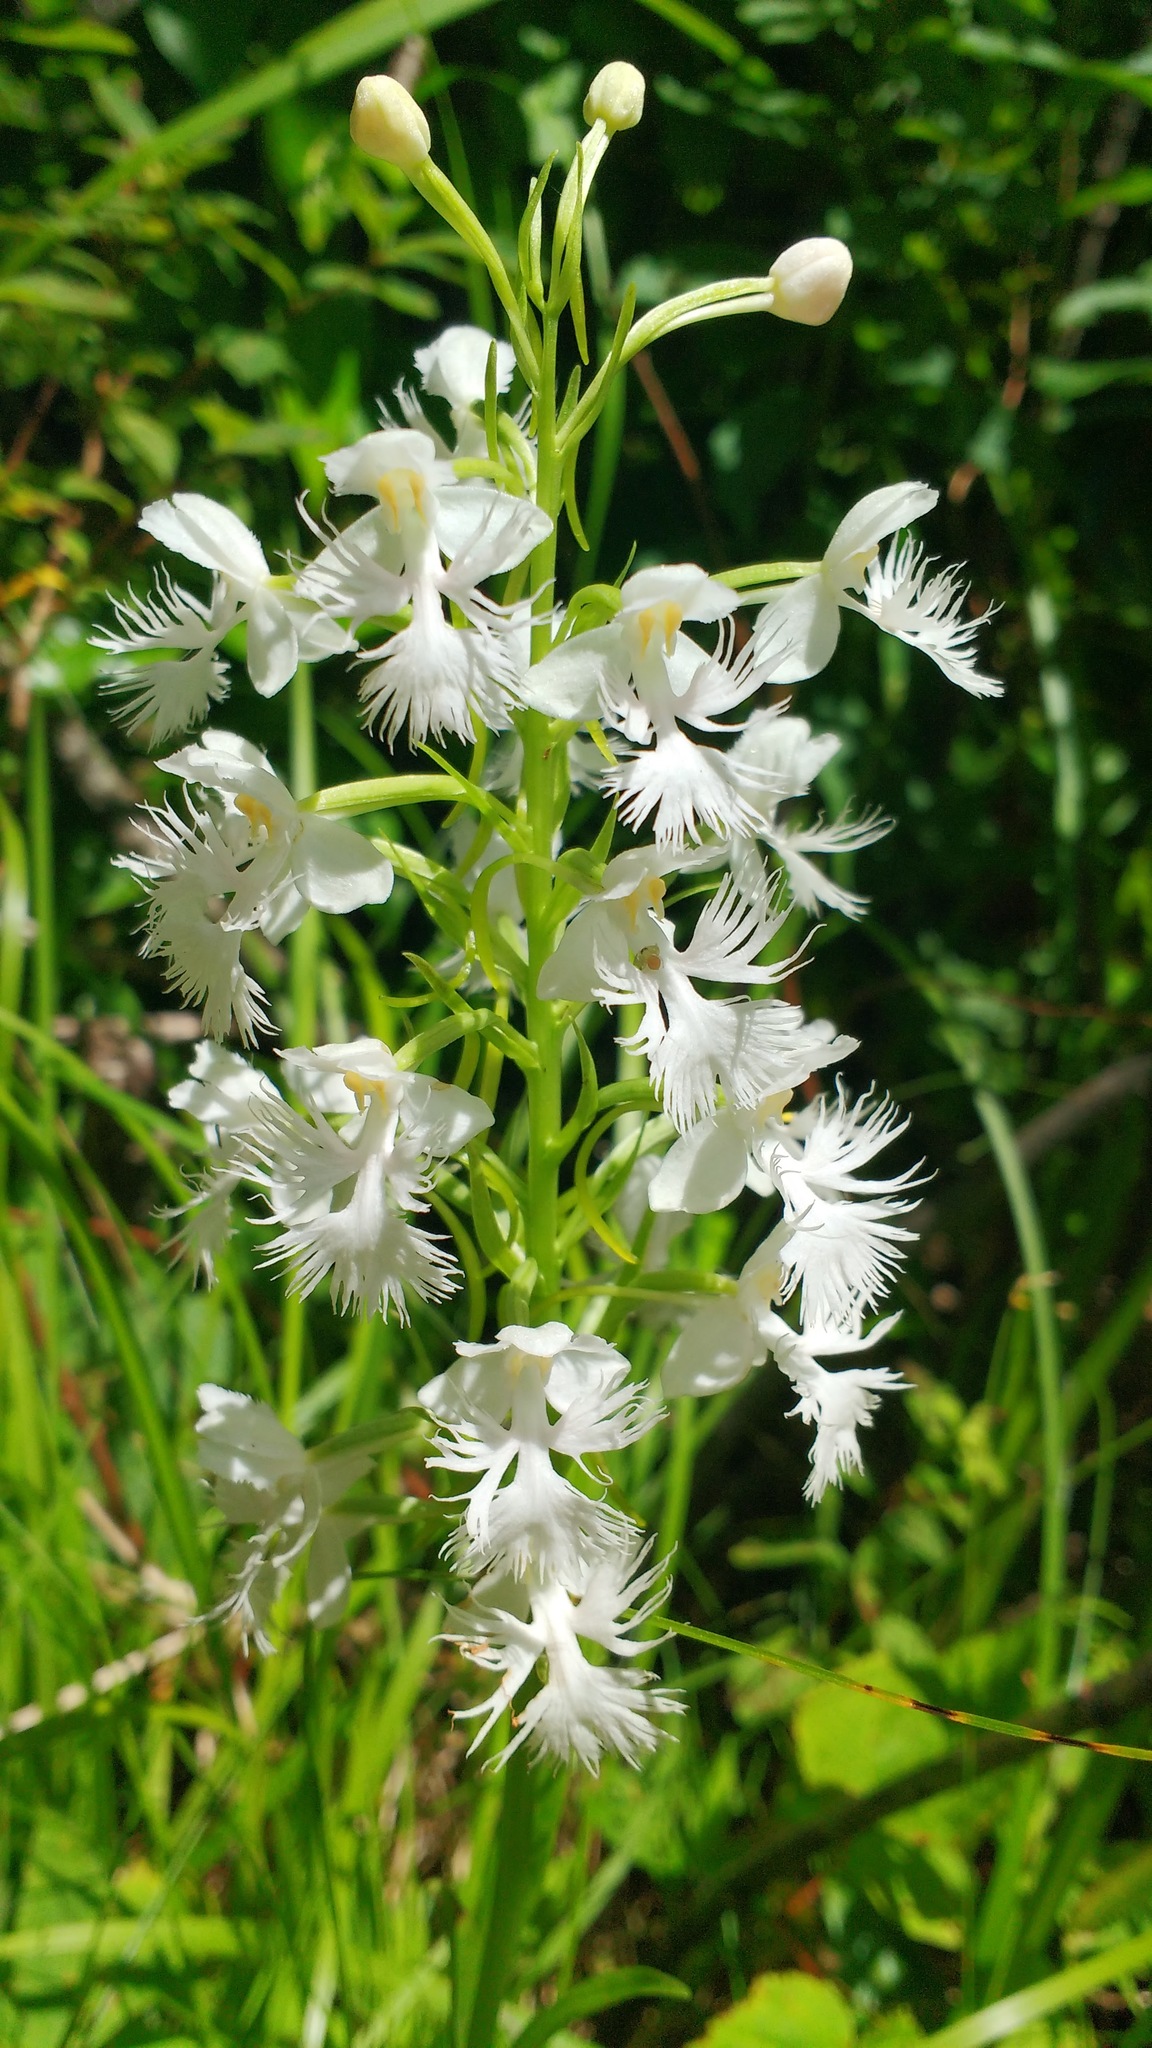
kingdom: Plantae
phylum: Tracheophyta
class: Liliopsida
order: Asparagales
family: Orchidaceae
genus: Platanthera
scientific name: Platanthera grandiflora
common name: Greater purple fringed orchid
